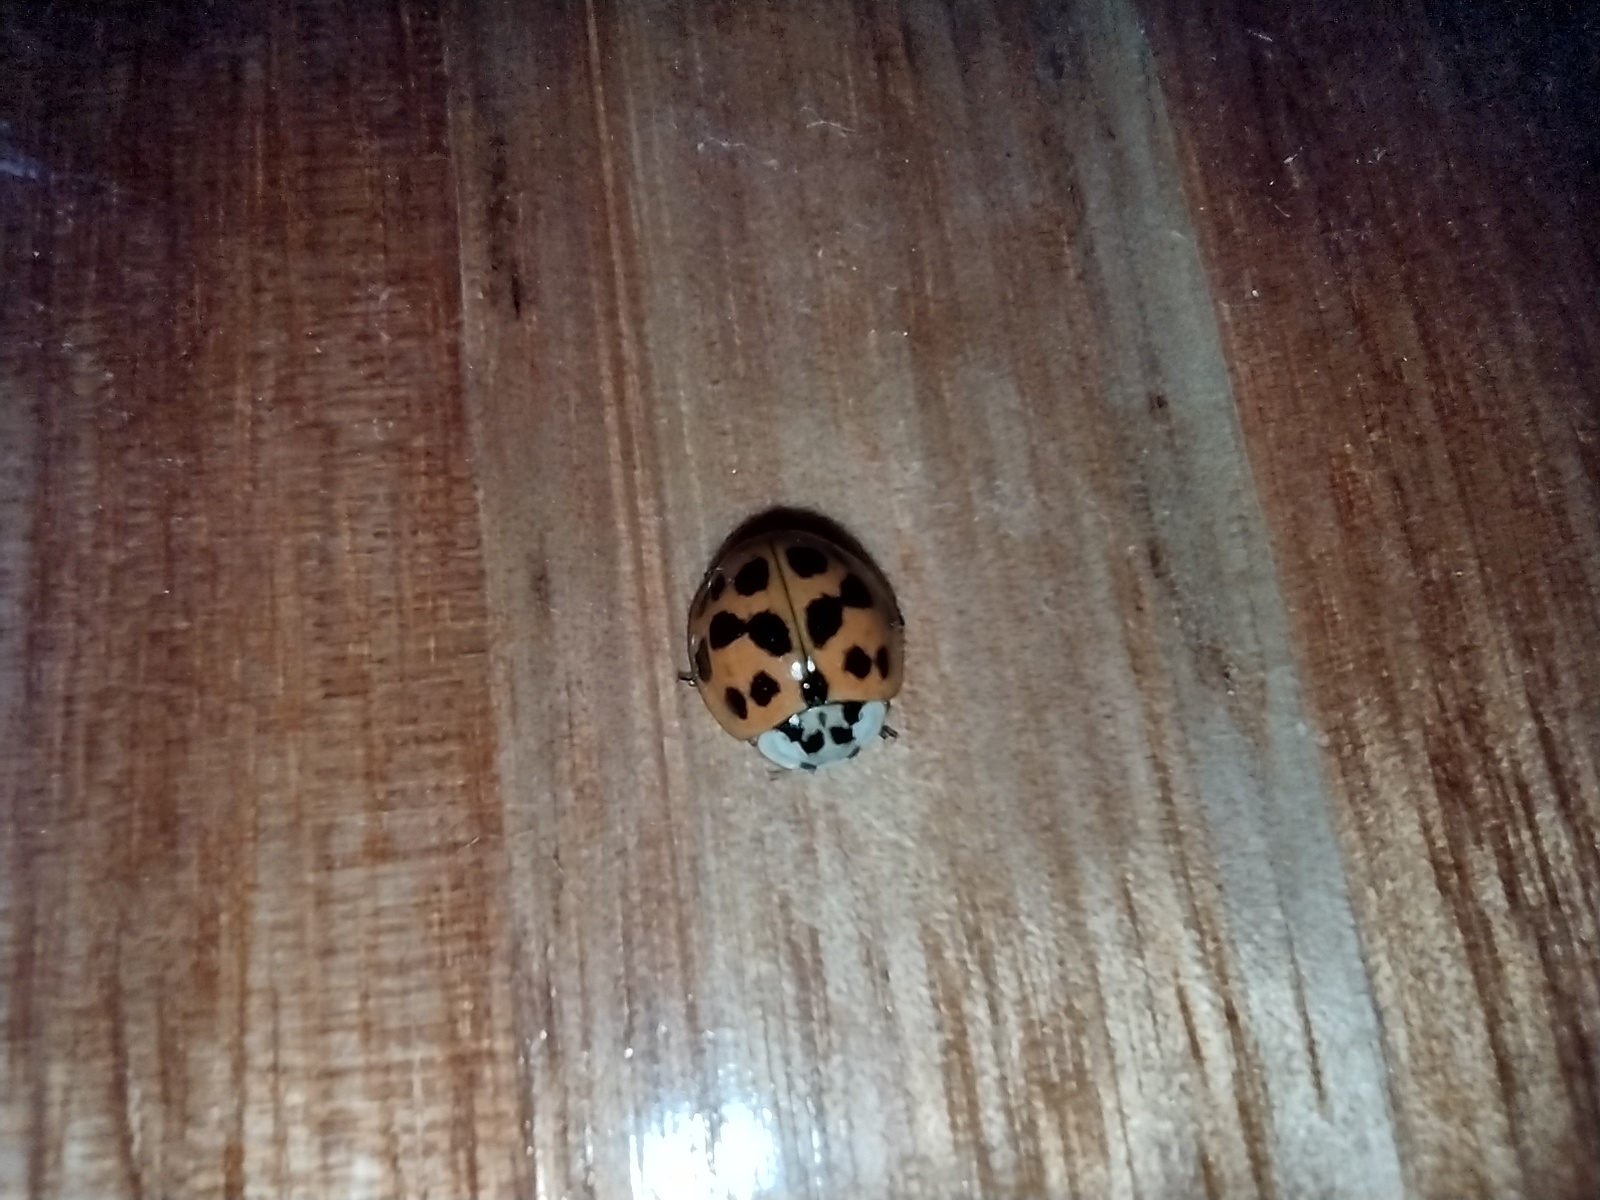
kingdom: Animalia
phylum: Arthropoda
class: Insecta
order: Coleoptera
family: Coccinellidae
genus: Harmonia
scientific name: Harmonia axyridis
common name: Harlequin ladybird
